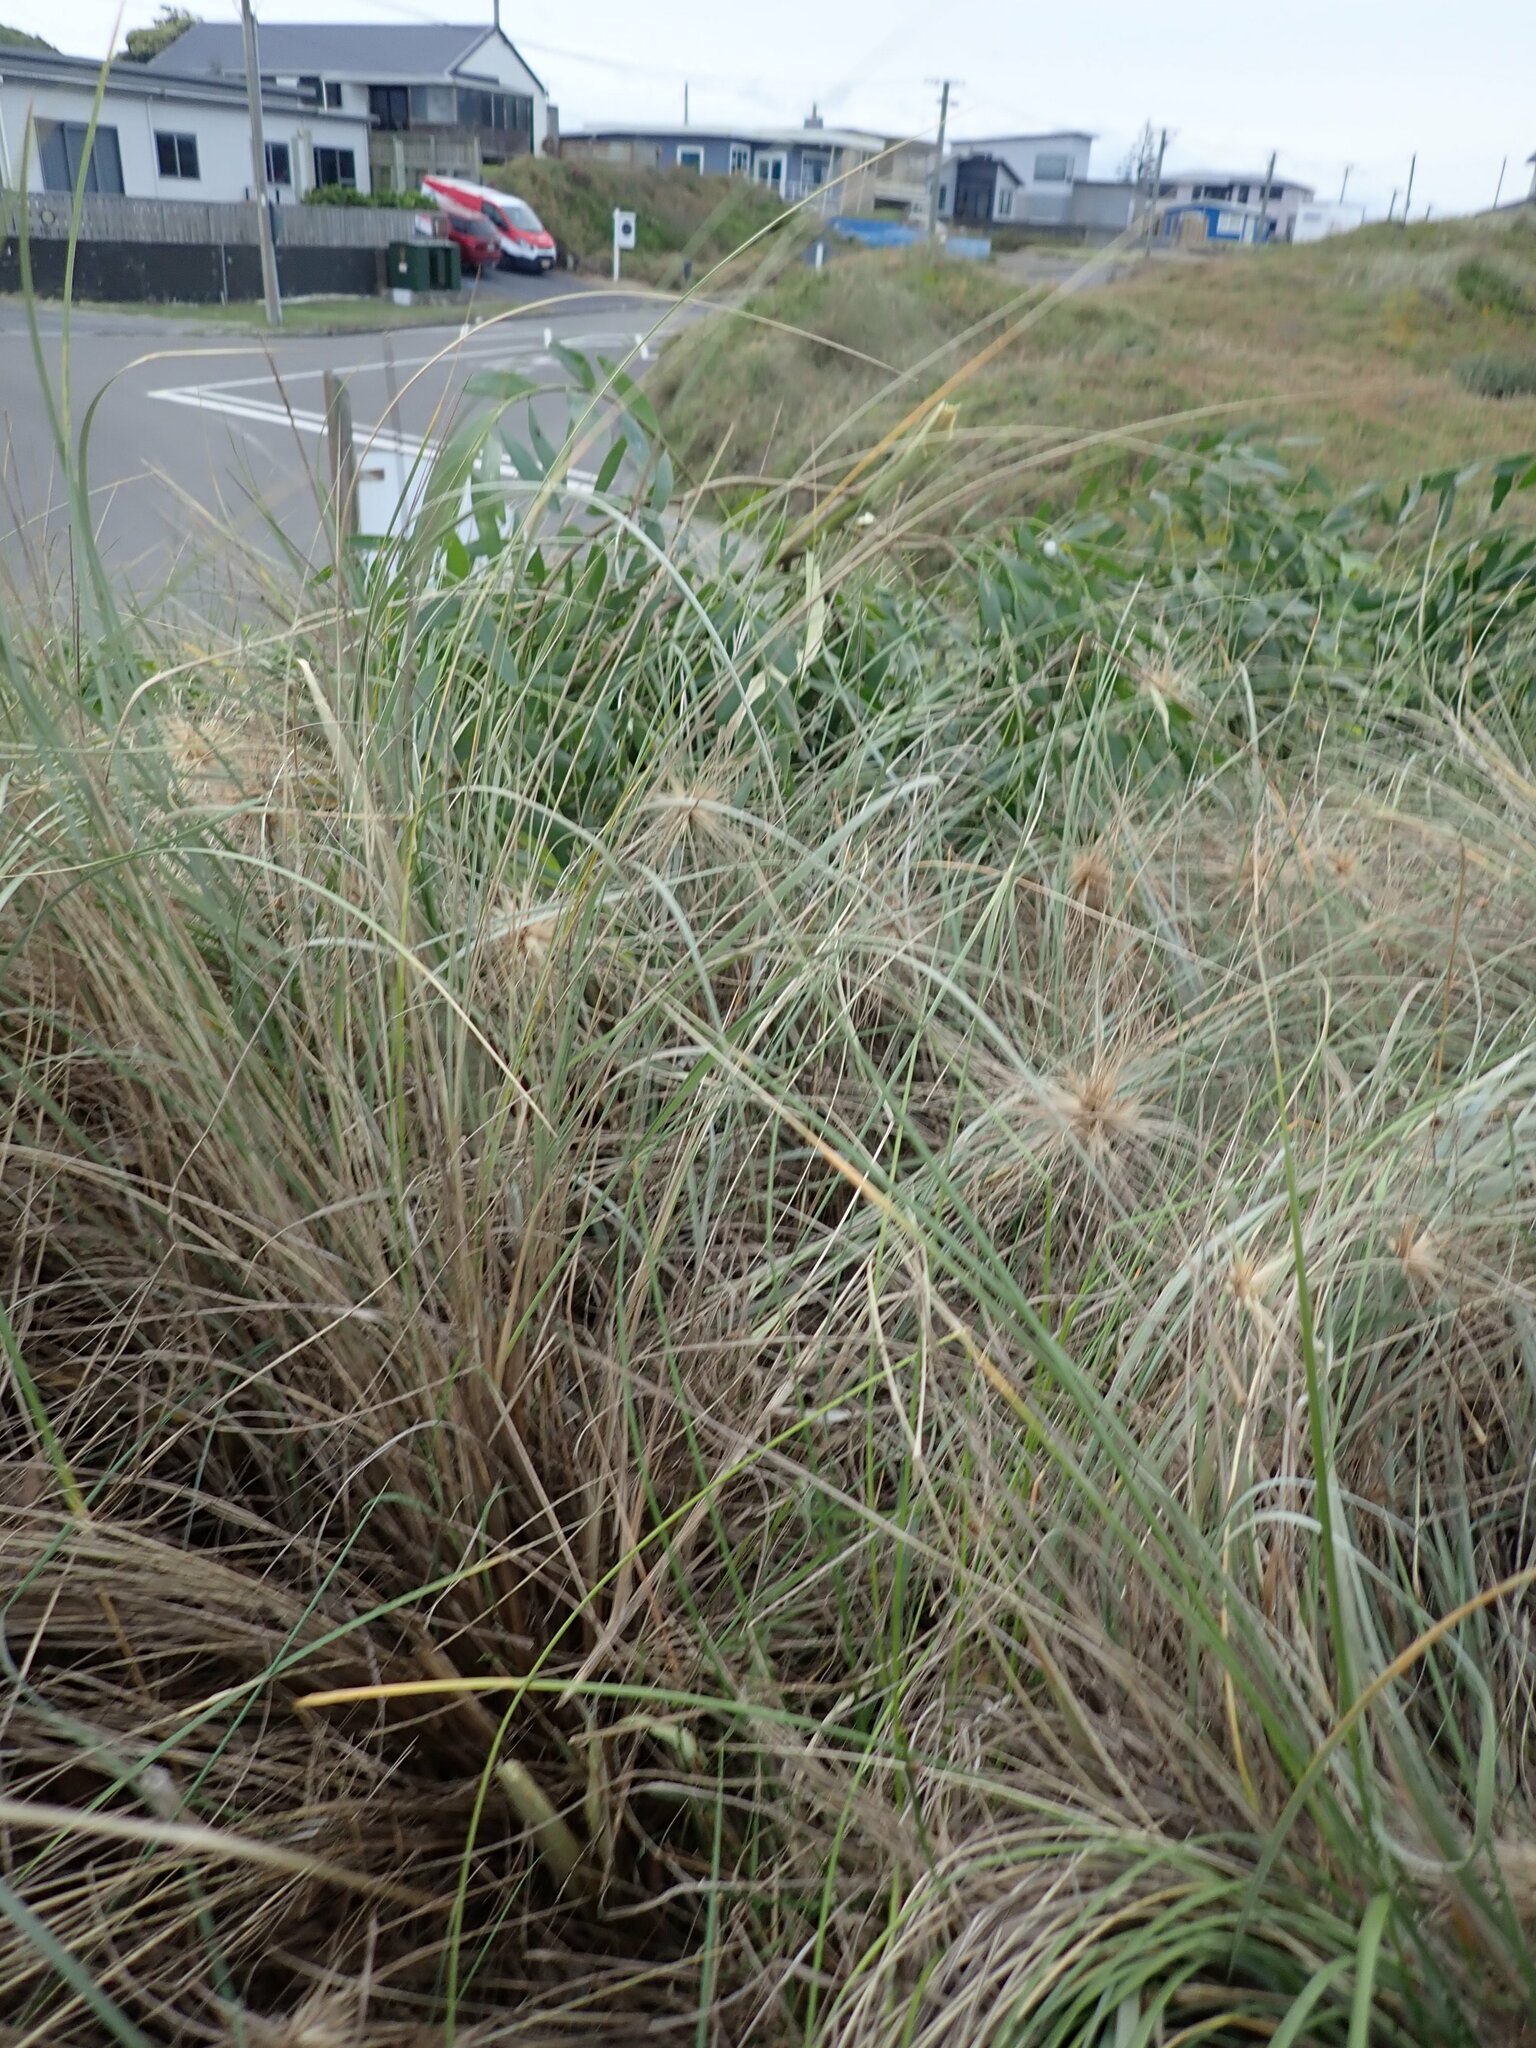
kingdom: Plantae
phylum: Tracheophyta
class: Magnoliopsida
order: Fabales
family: Fabaceae
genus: Acacia
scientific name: Acacia longifolia
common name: Sydney golden wattle
